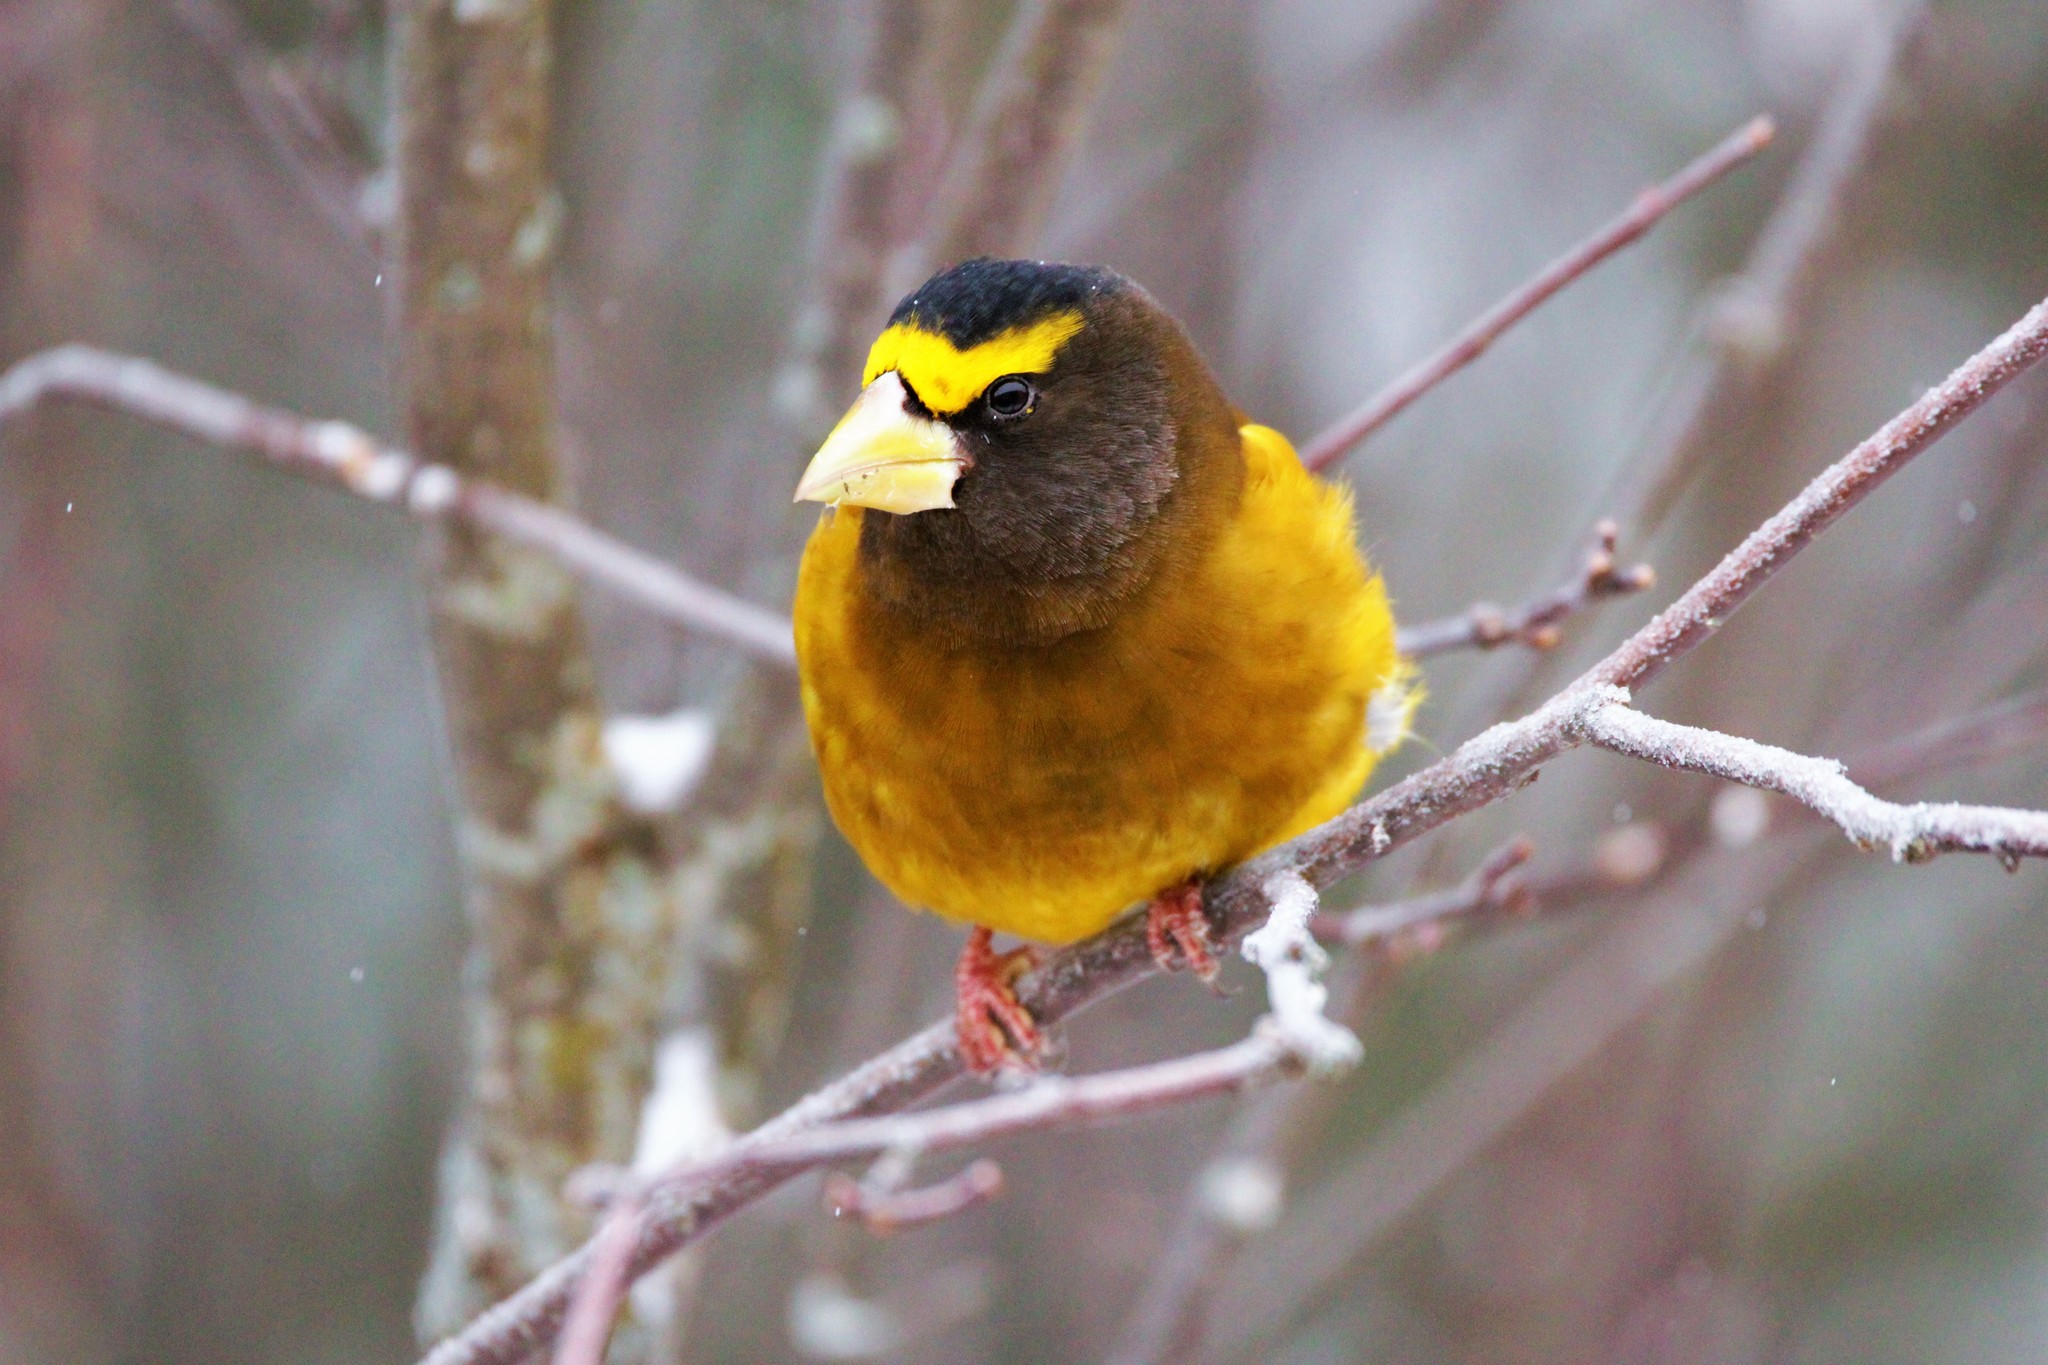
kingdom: Animalia
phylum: Chordata
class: Aves
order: Passeriformes
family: Fringillidae
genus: Hesperiphona
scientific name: Hesperiphona vespertina
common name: Evening grosbeak
